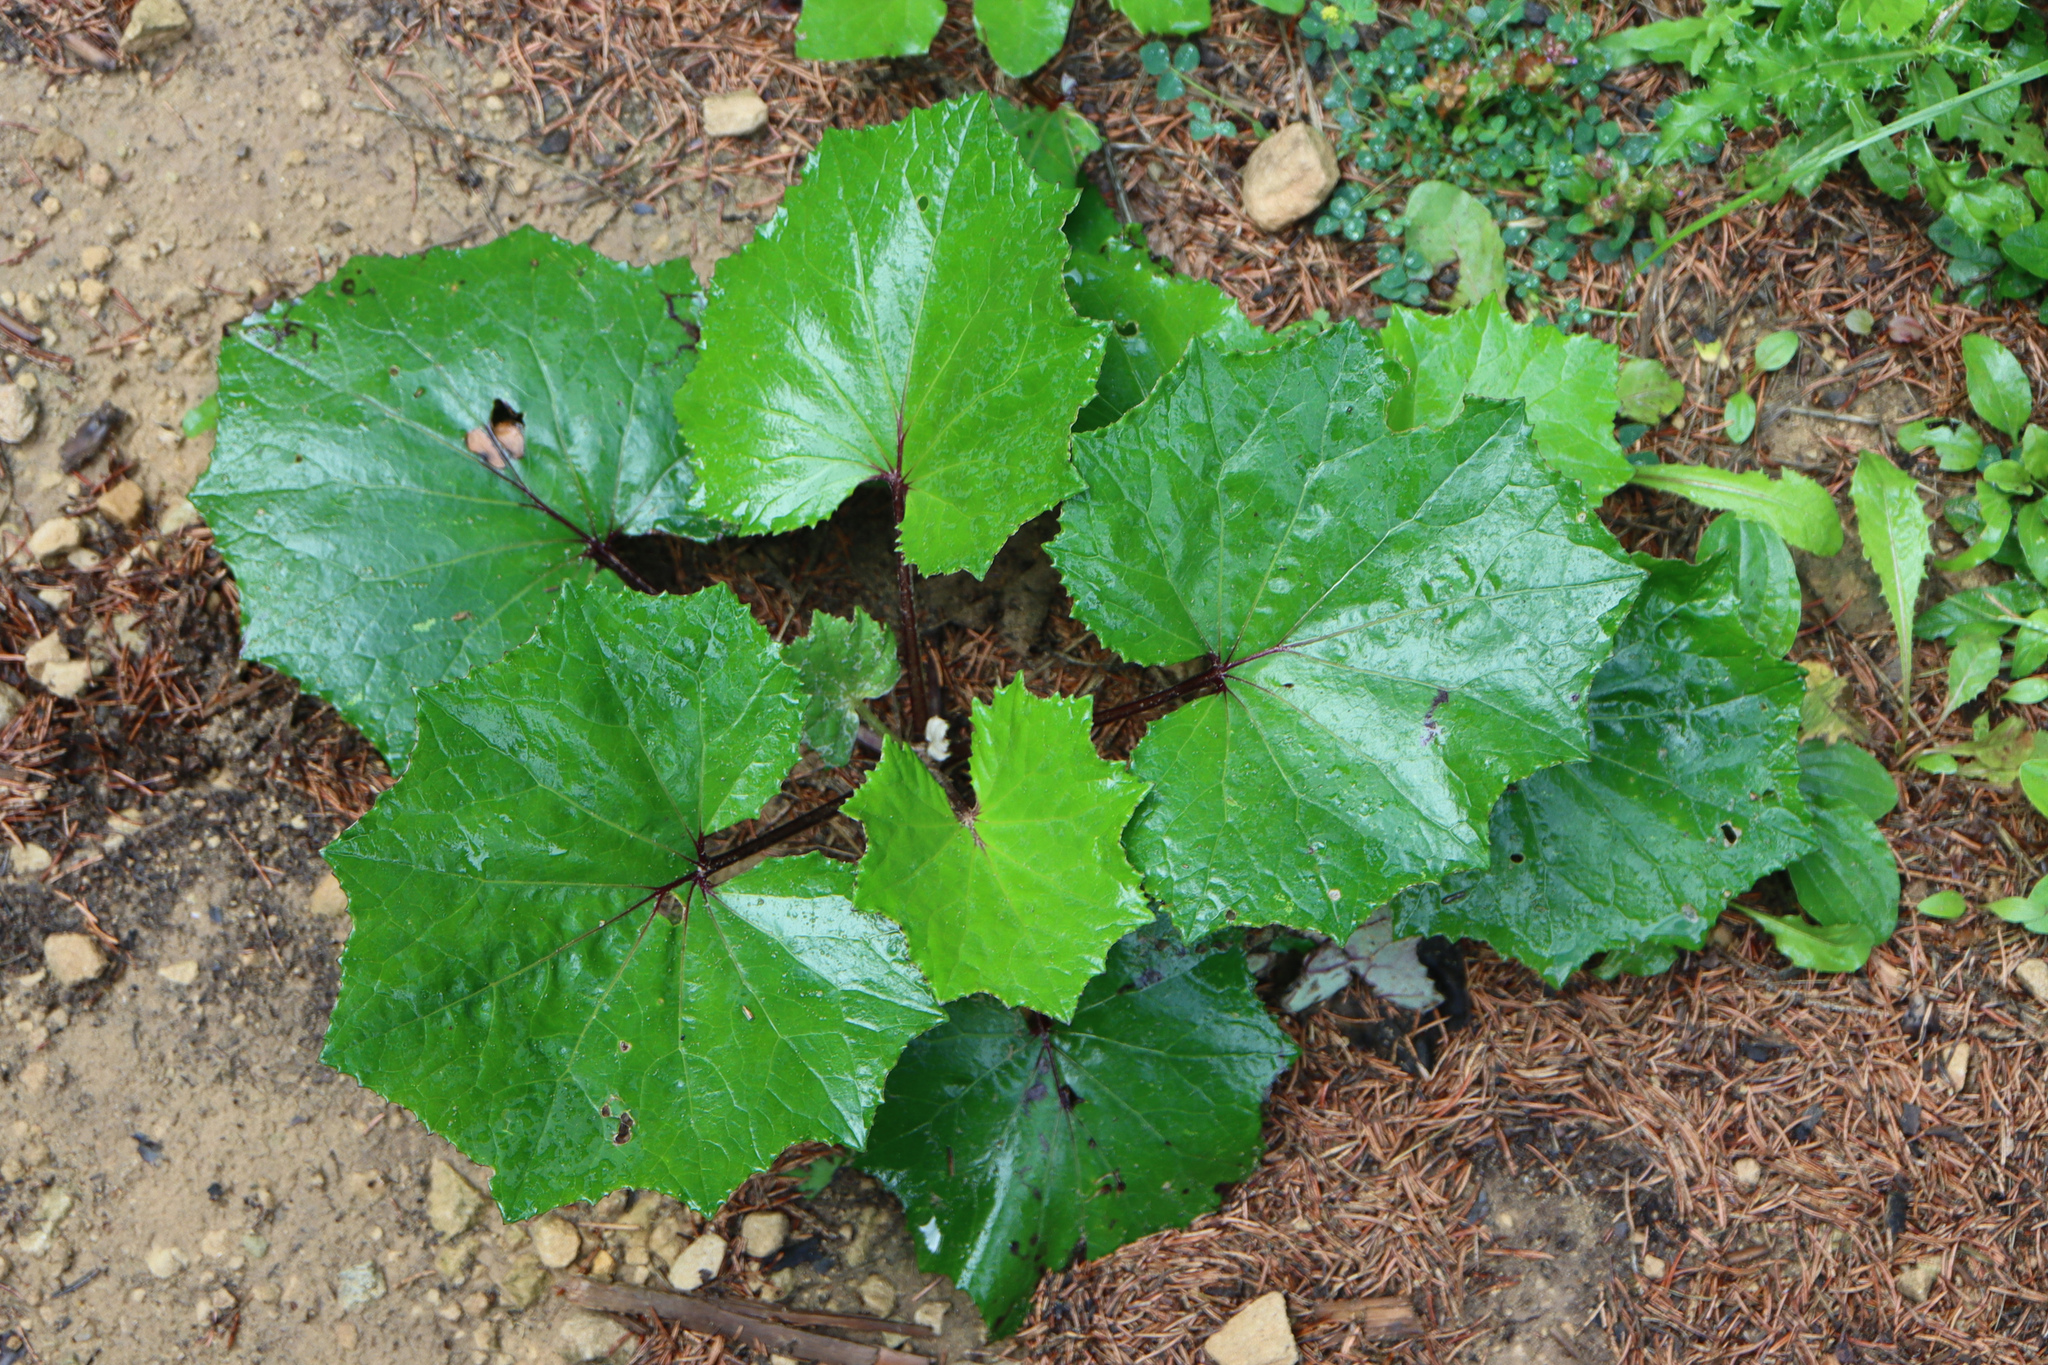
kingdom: Plantae
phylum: Tracheophyta
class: Magnoliopsida
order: Asterales
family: Asteraceae
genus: Tussilago
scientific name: Tussilago farfara
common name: Coltsfoot
